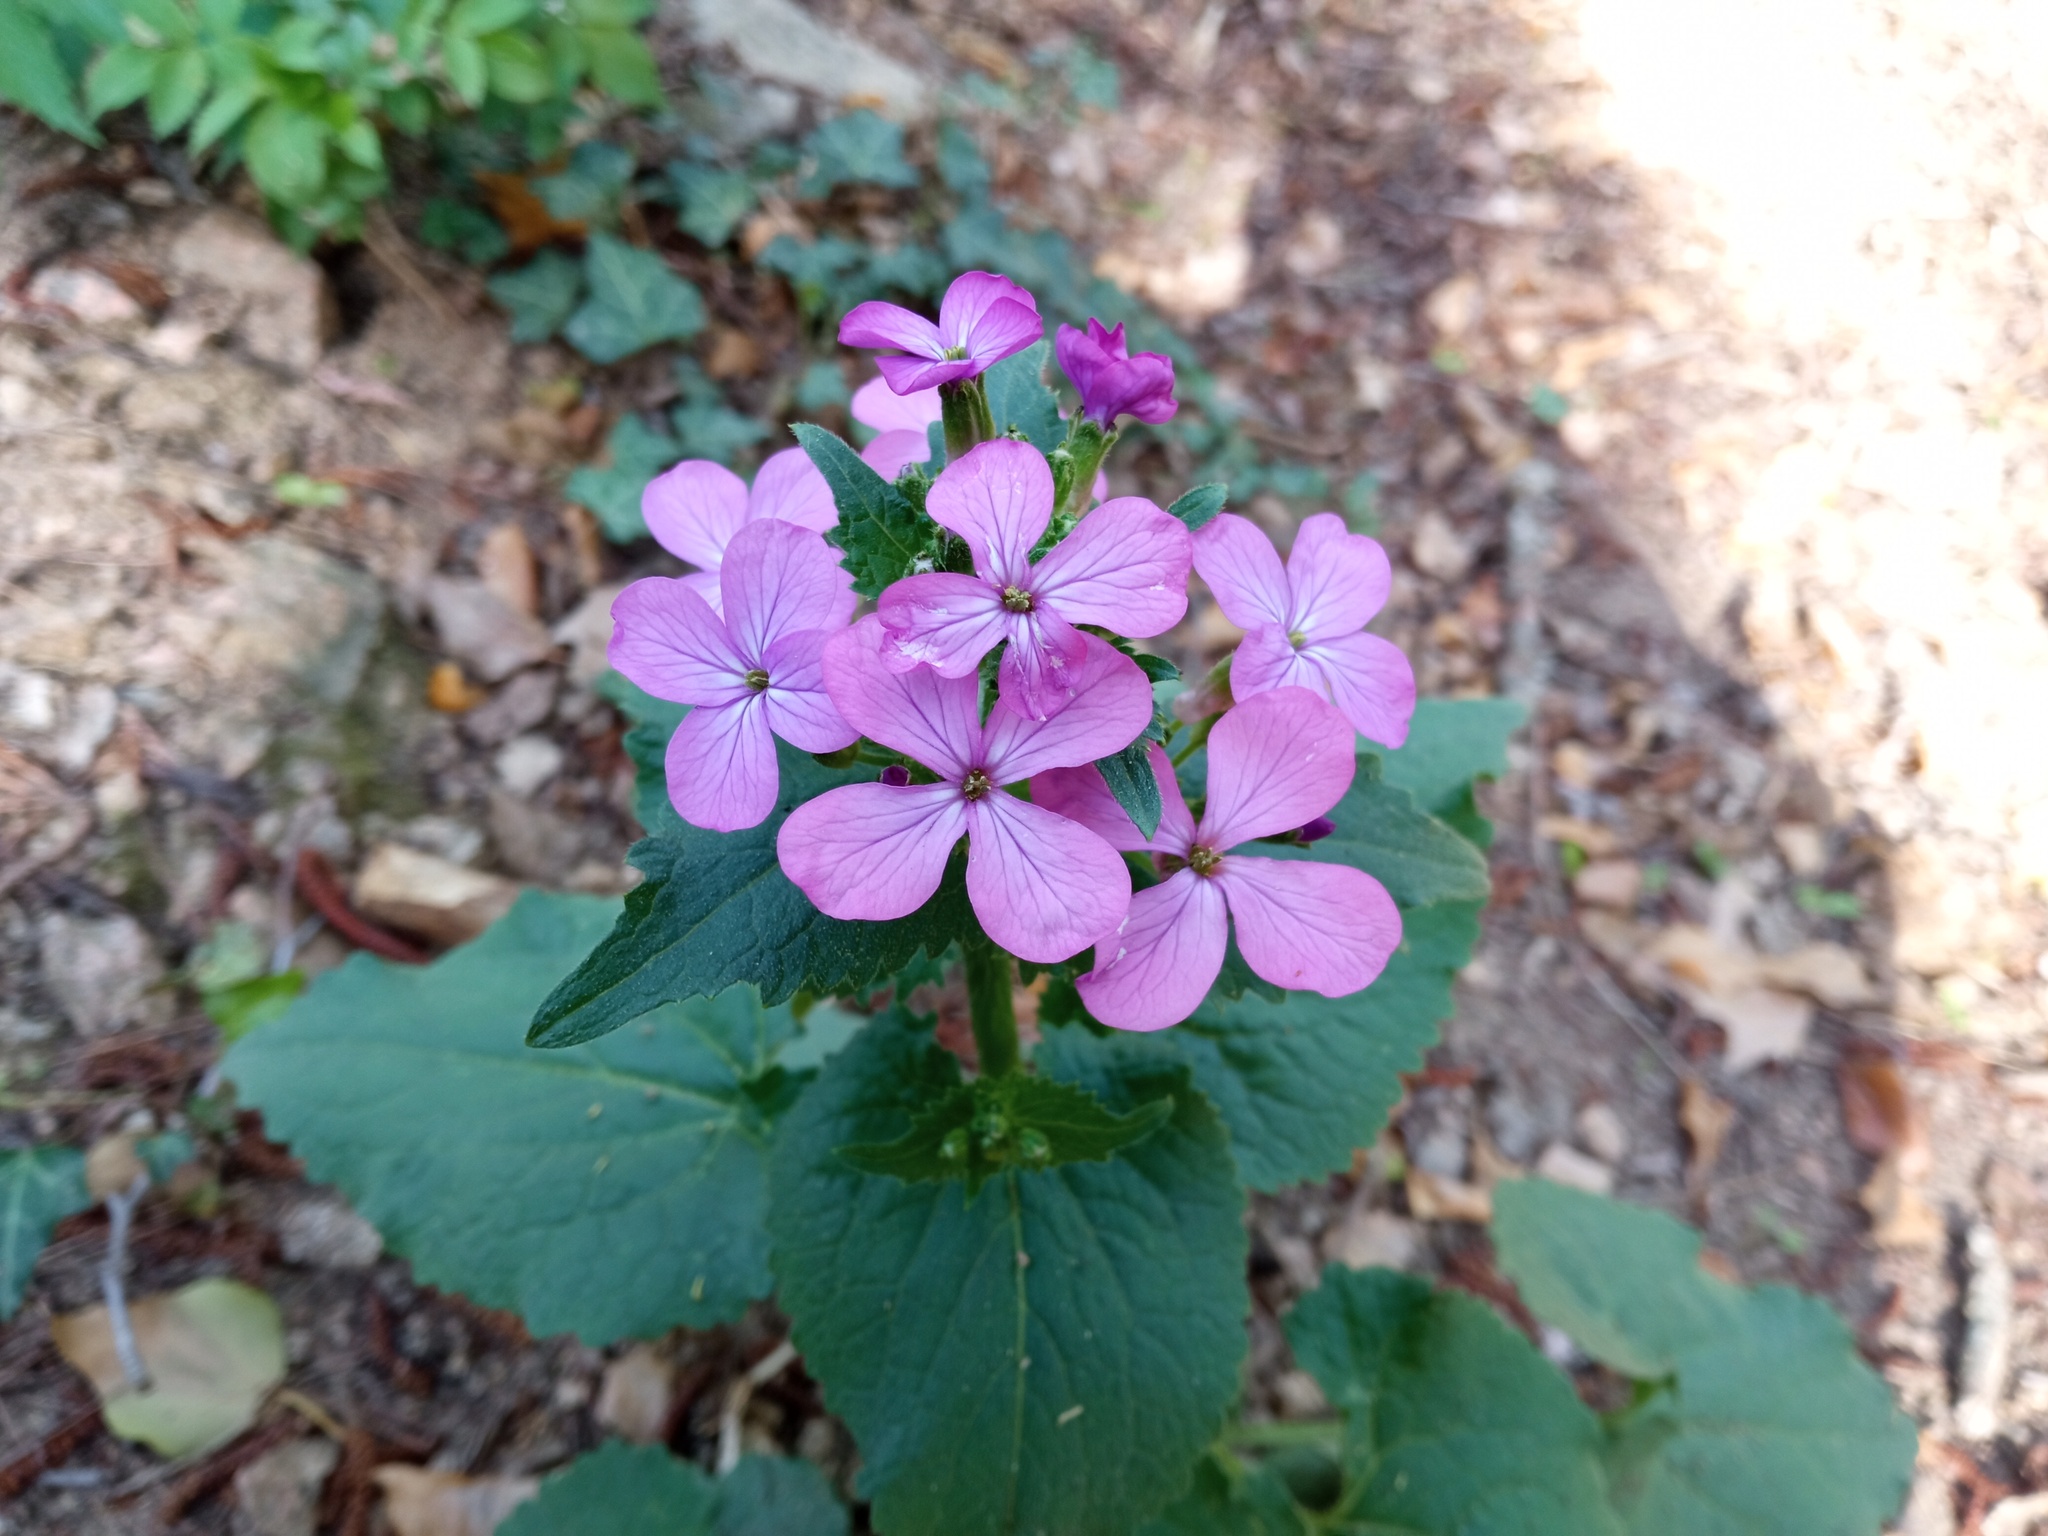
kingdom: Plantae
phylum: Tracheophyta
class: Magnoliopsida
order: Brassicales
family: Brassicaceae
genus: Lunaria
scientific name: Lunaria annua
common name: Honesty
